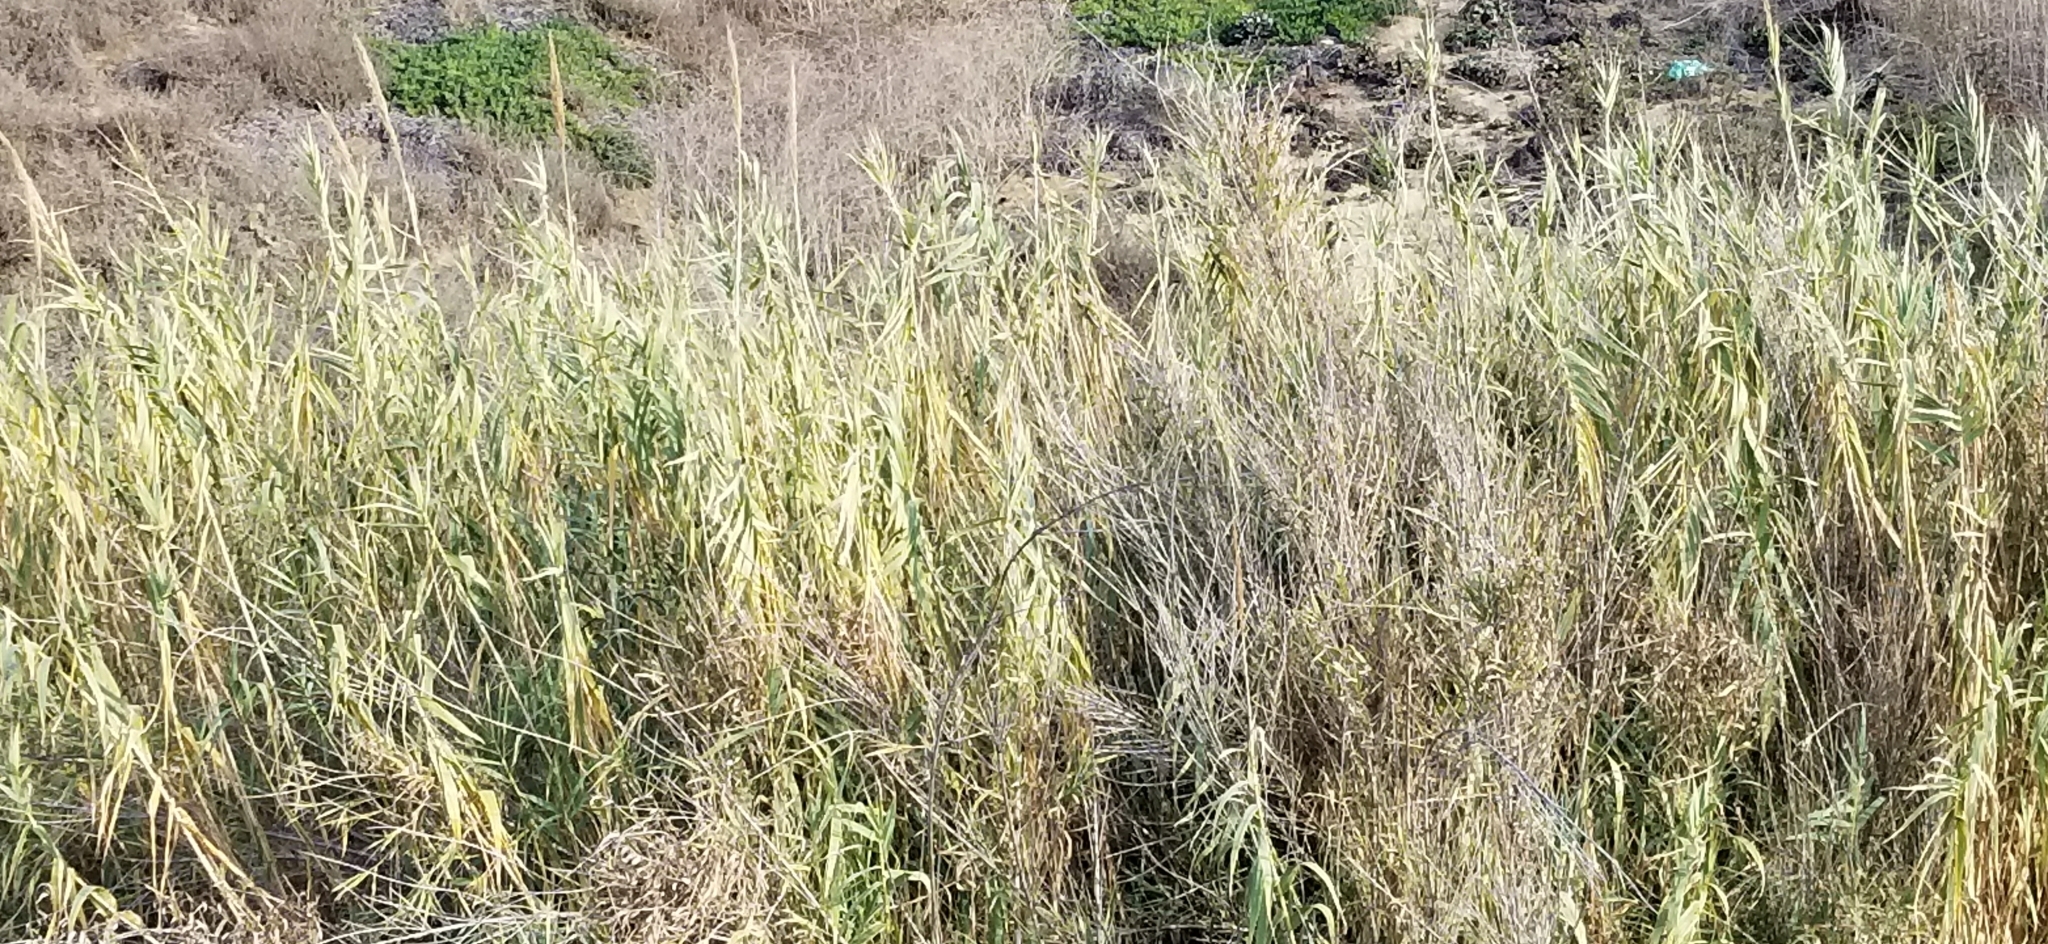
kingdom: Plantae
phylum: Tracheophyta
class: Liliopsida
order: Poales
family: Poaceae
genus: Arundo
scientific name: Arundo donax
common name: Giant reed
